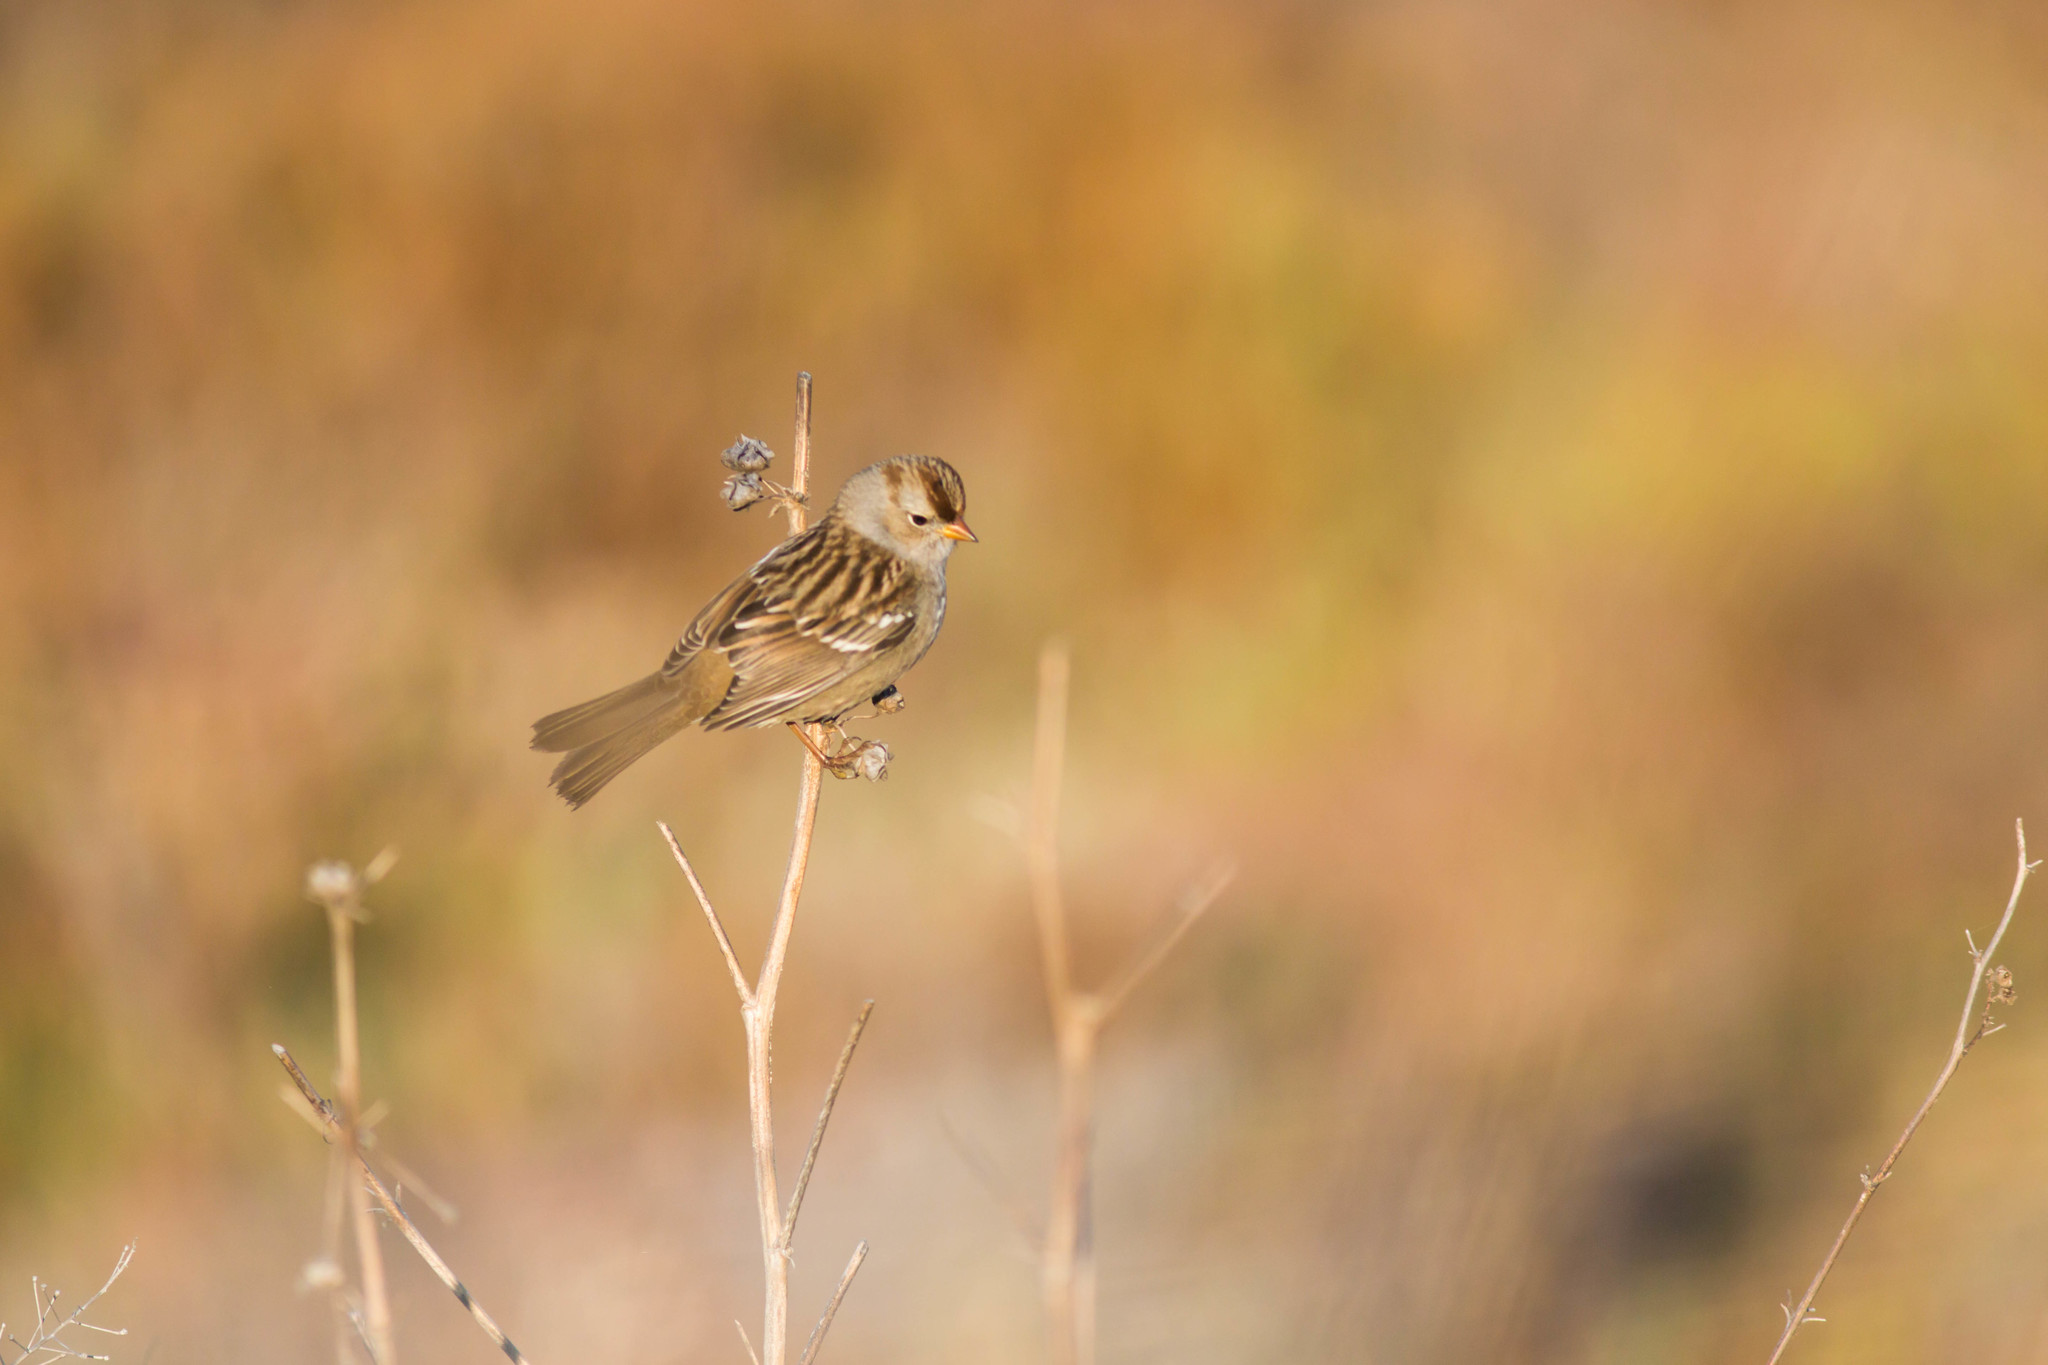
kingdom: Animalia
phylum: Chordata
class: Aves
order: Passeriformes
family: Passerellidae
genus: Zonotrichia
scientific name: Zonotrichia leucophrys
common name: White-crowned sparrow
